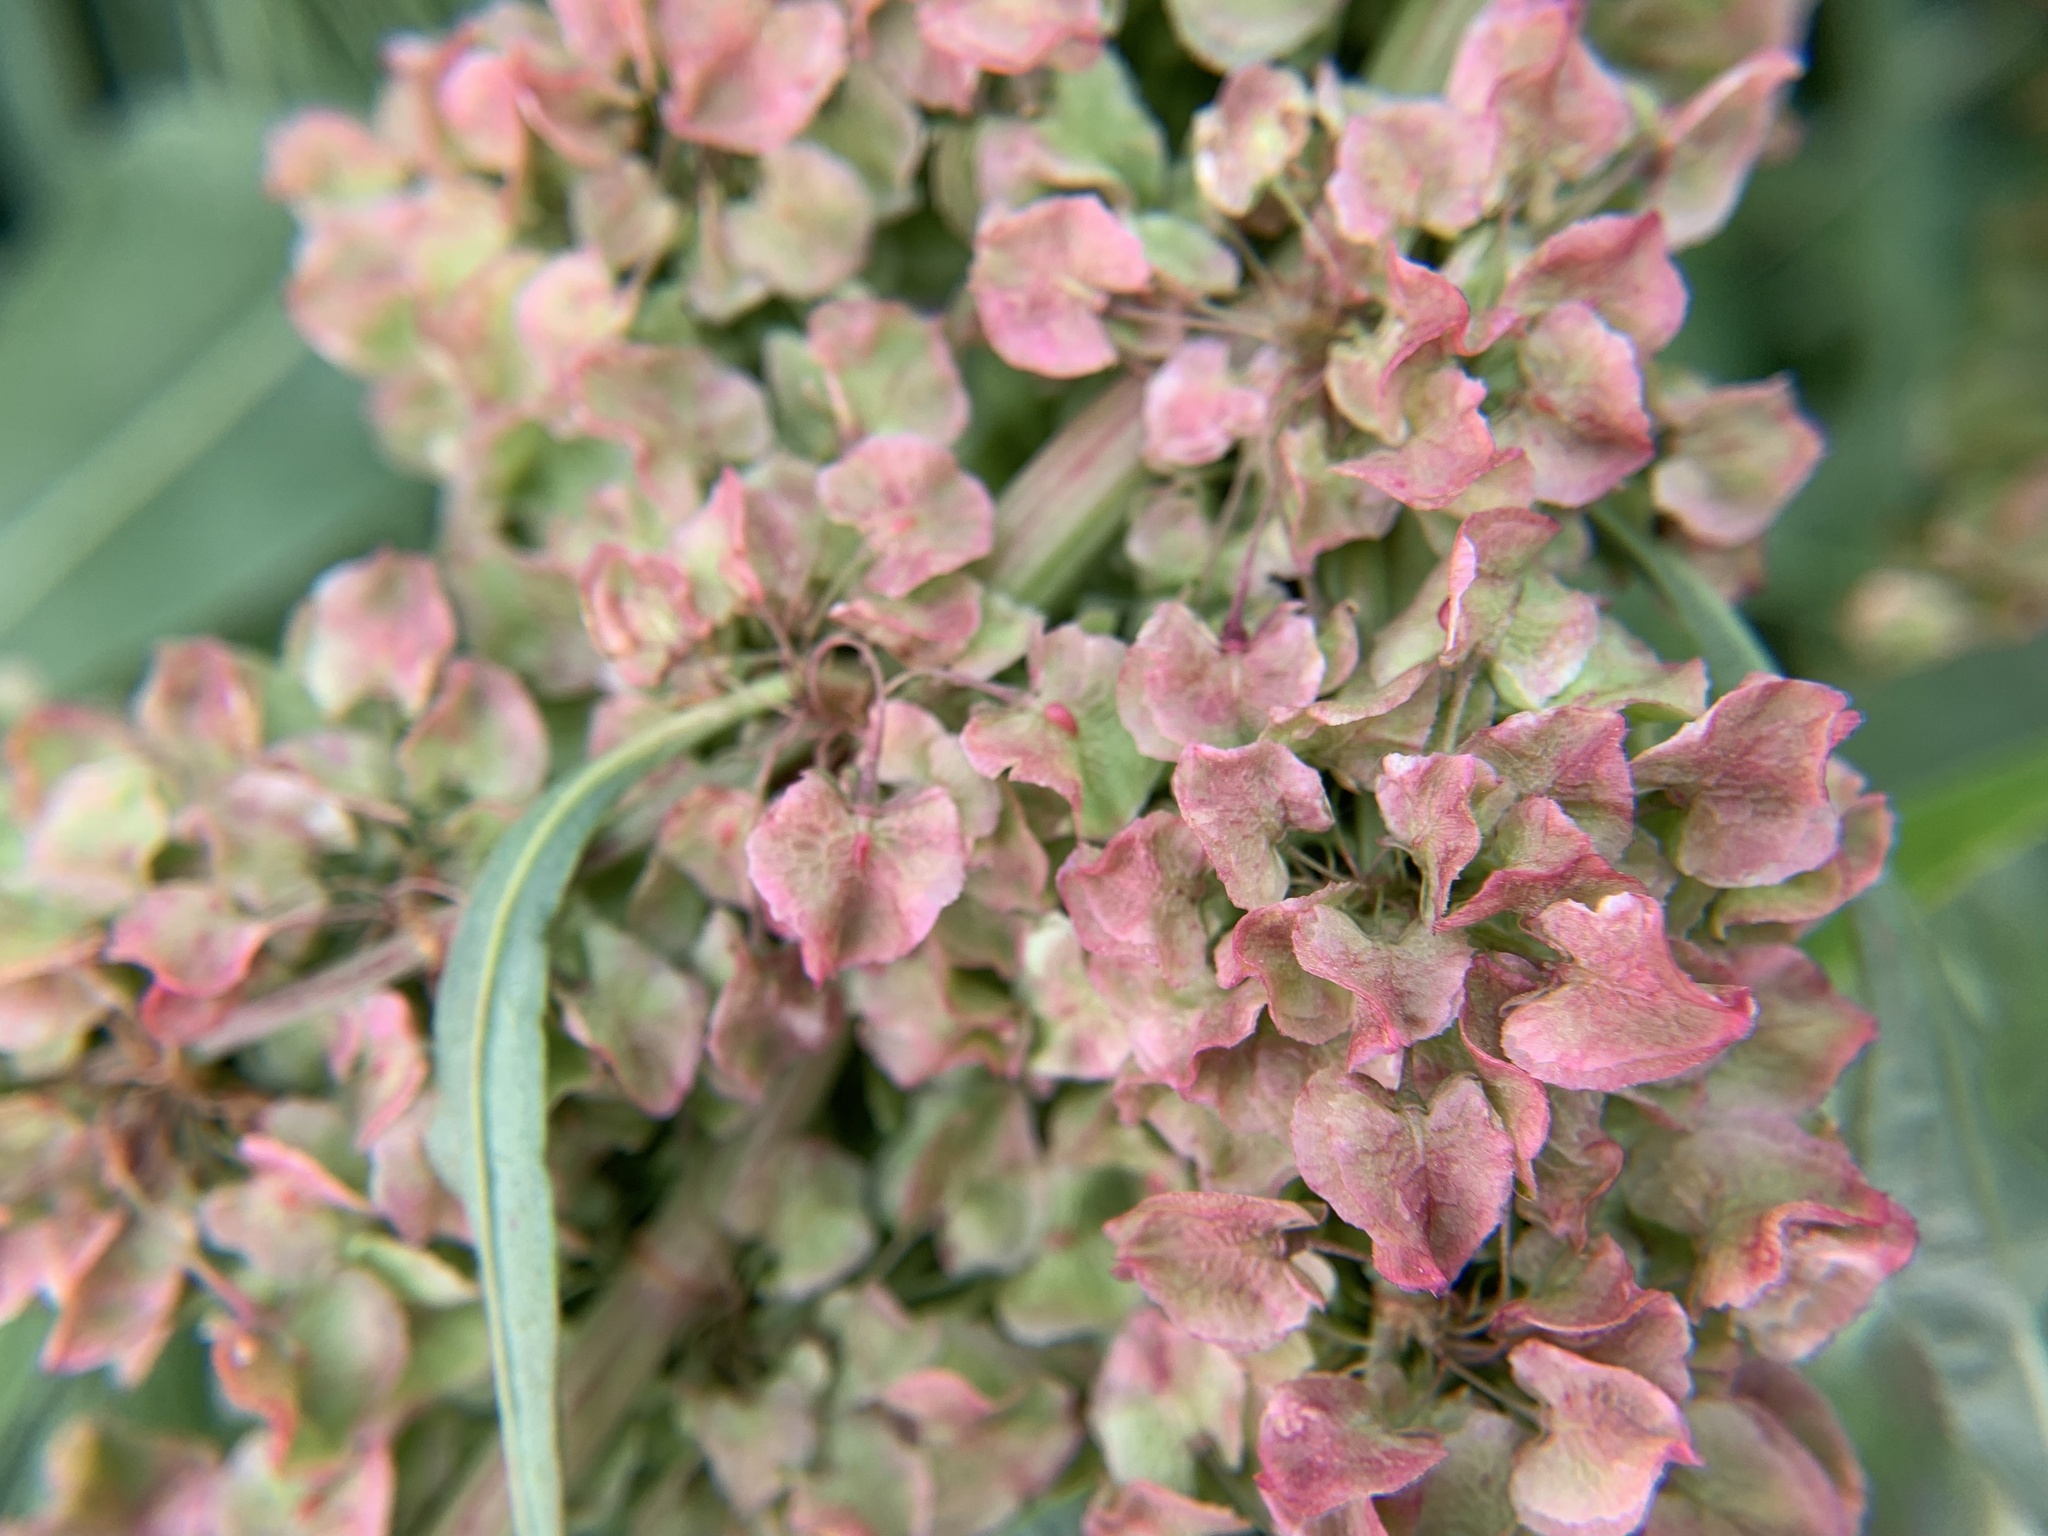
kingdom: Plantae
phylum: Tracheophyta
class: Magnoliopsida
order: Caryophyllales
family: Polygonaceae
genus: Rumex
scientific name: Rumex patientia
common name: Patience dock
